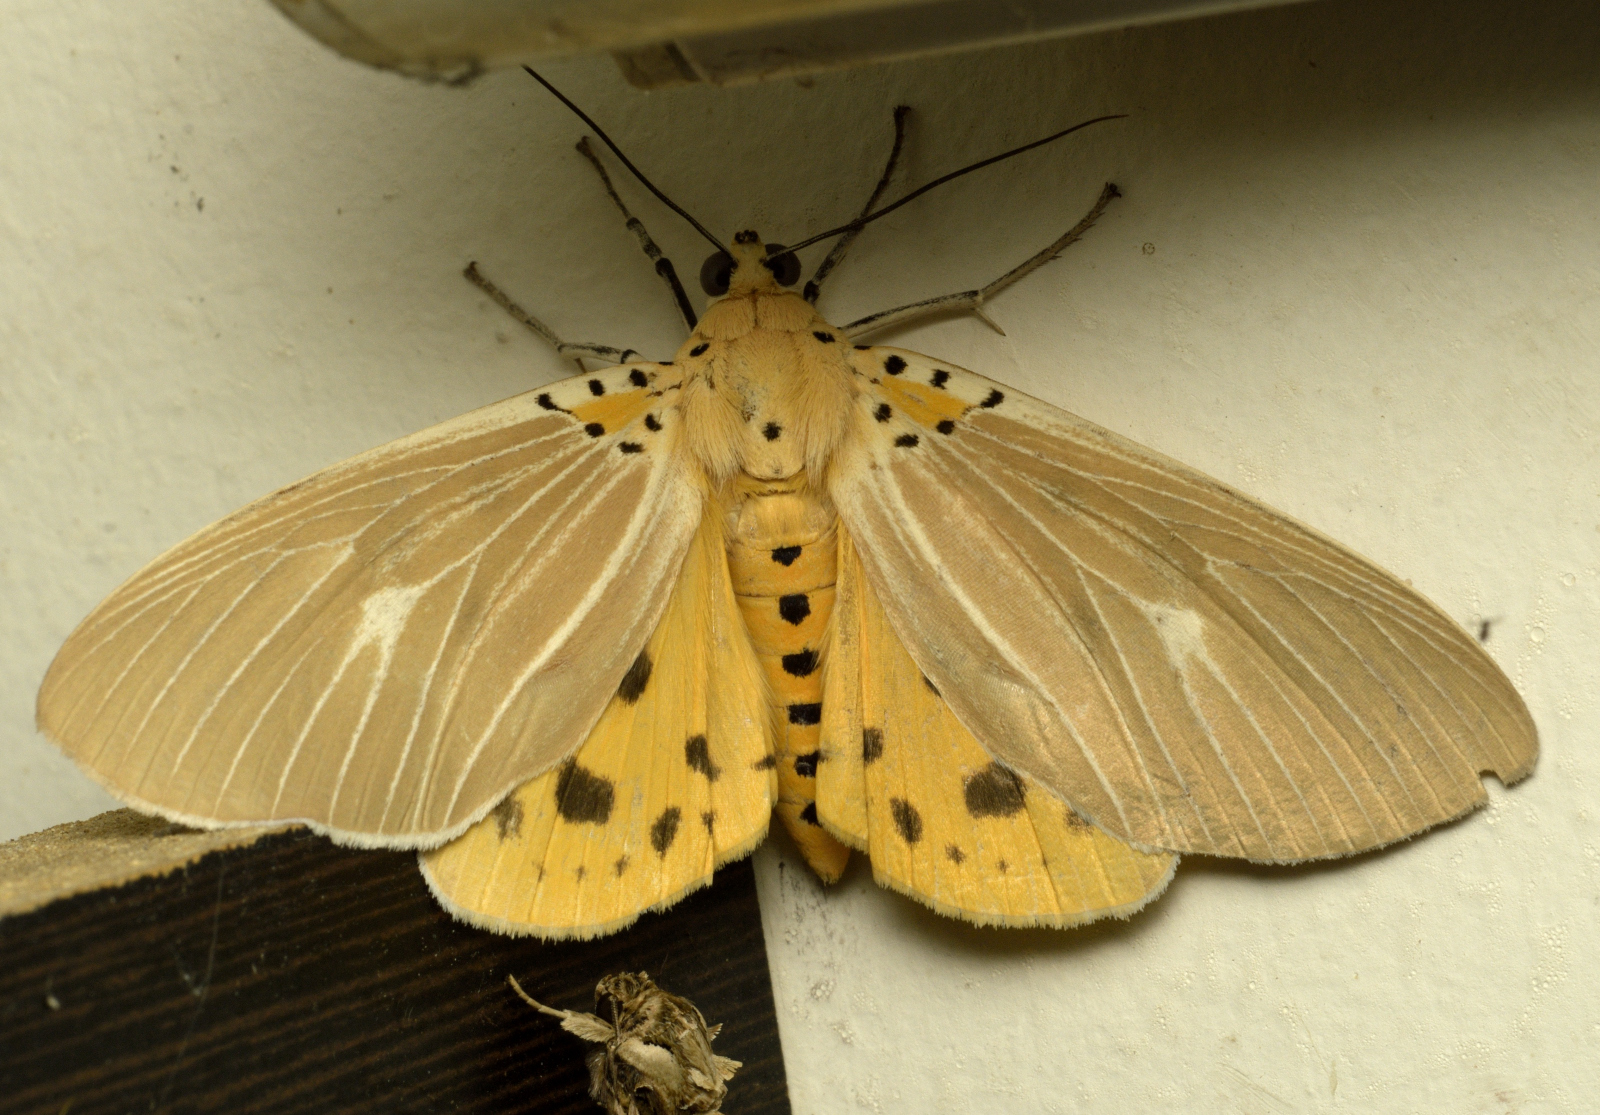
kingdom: Animalia
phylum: Arthropoda
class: Insecta
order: Lepidoptera
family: Erebidae
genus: Asota
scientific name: Asota caricae
